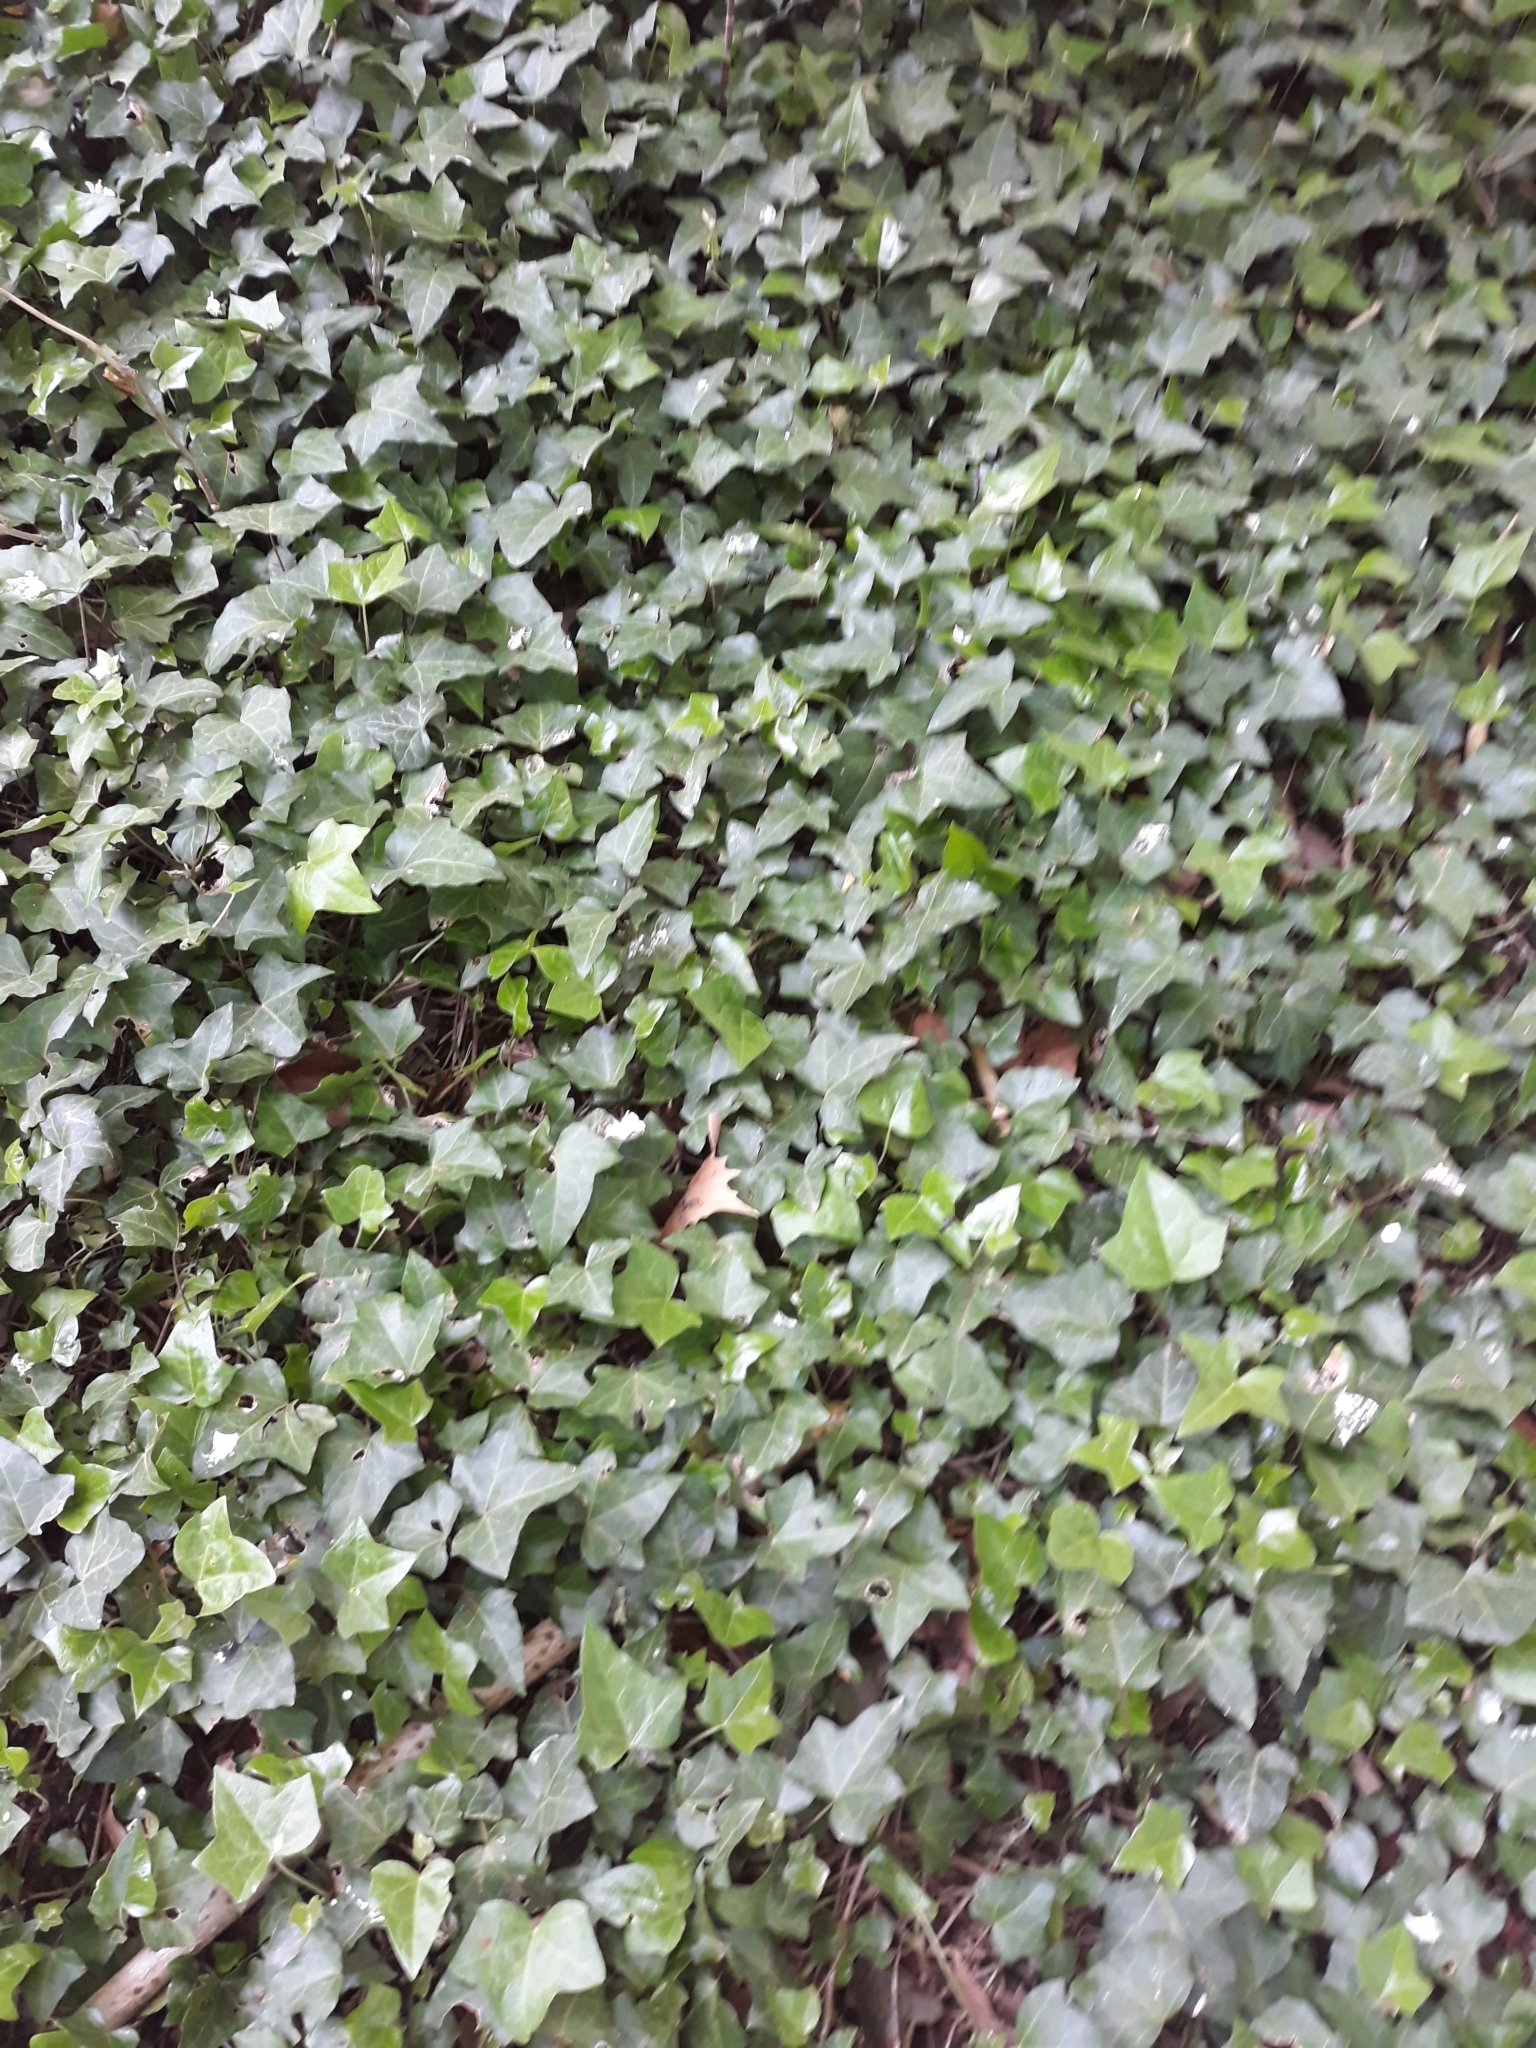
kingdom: Plantae
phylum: Tracheophyta
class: Magnoliopsida
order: Apiales
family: Araliaceae
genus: Hedera
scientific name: Hedera helix
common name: Ivy
